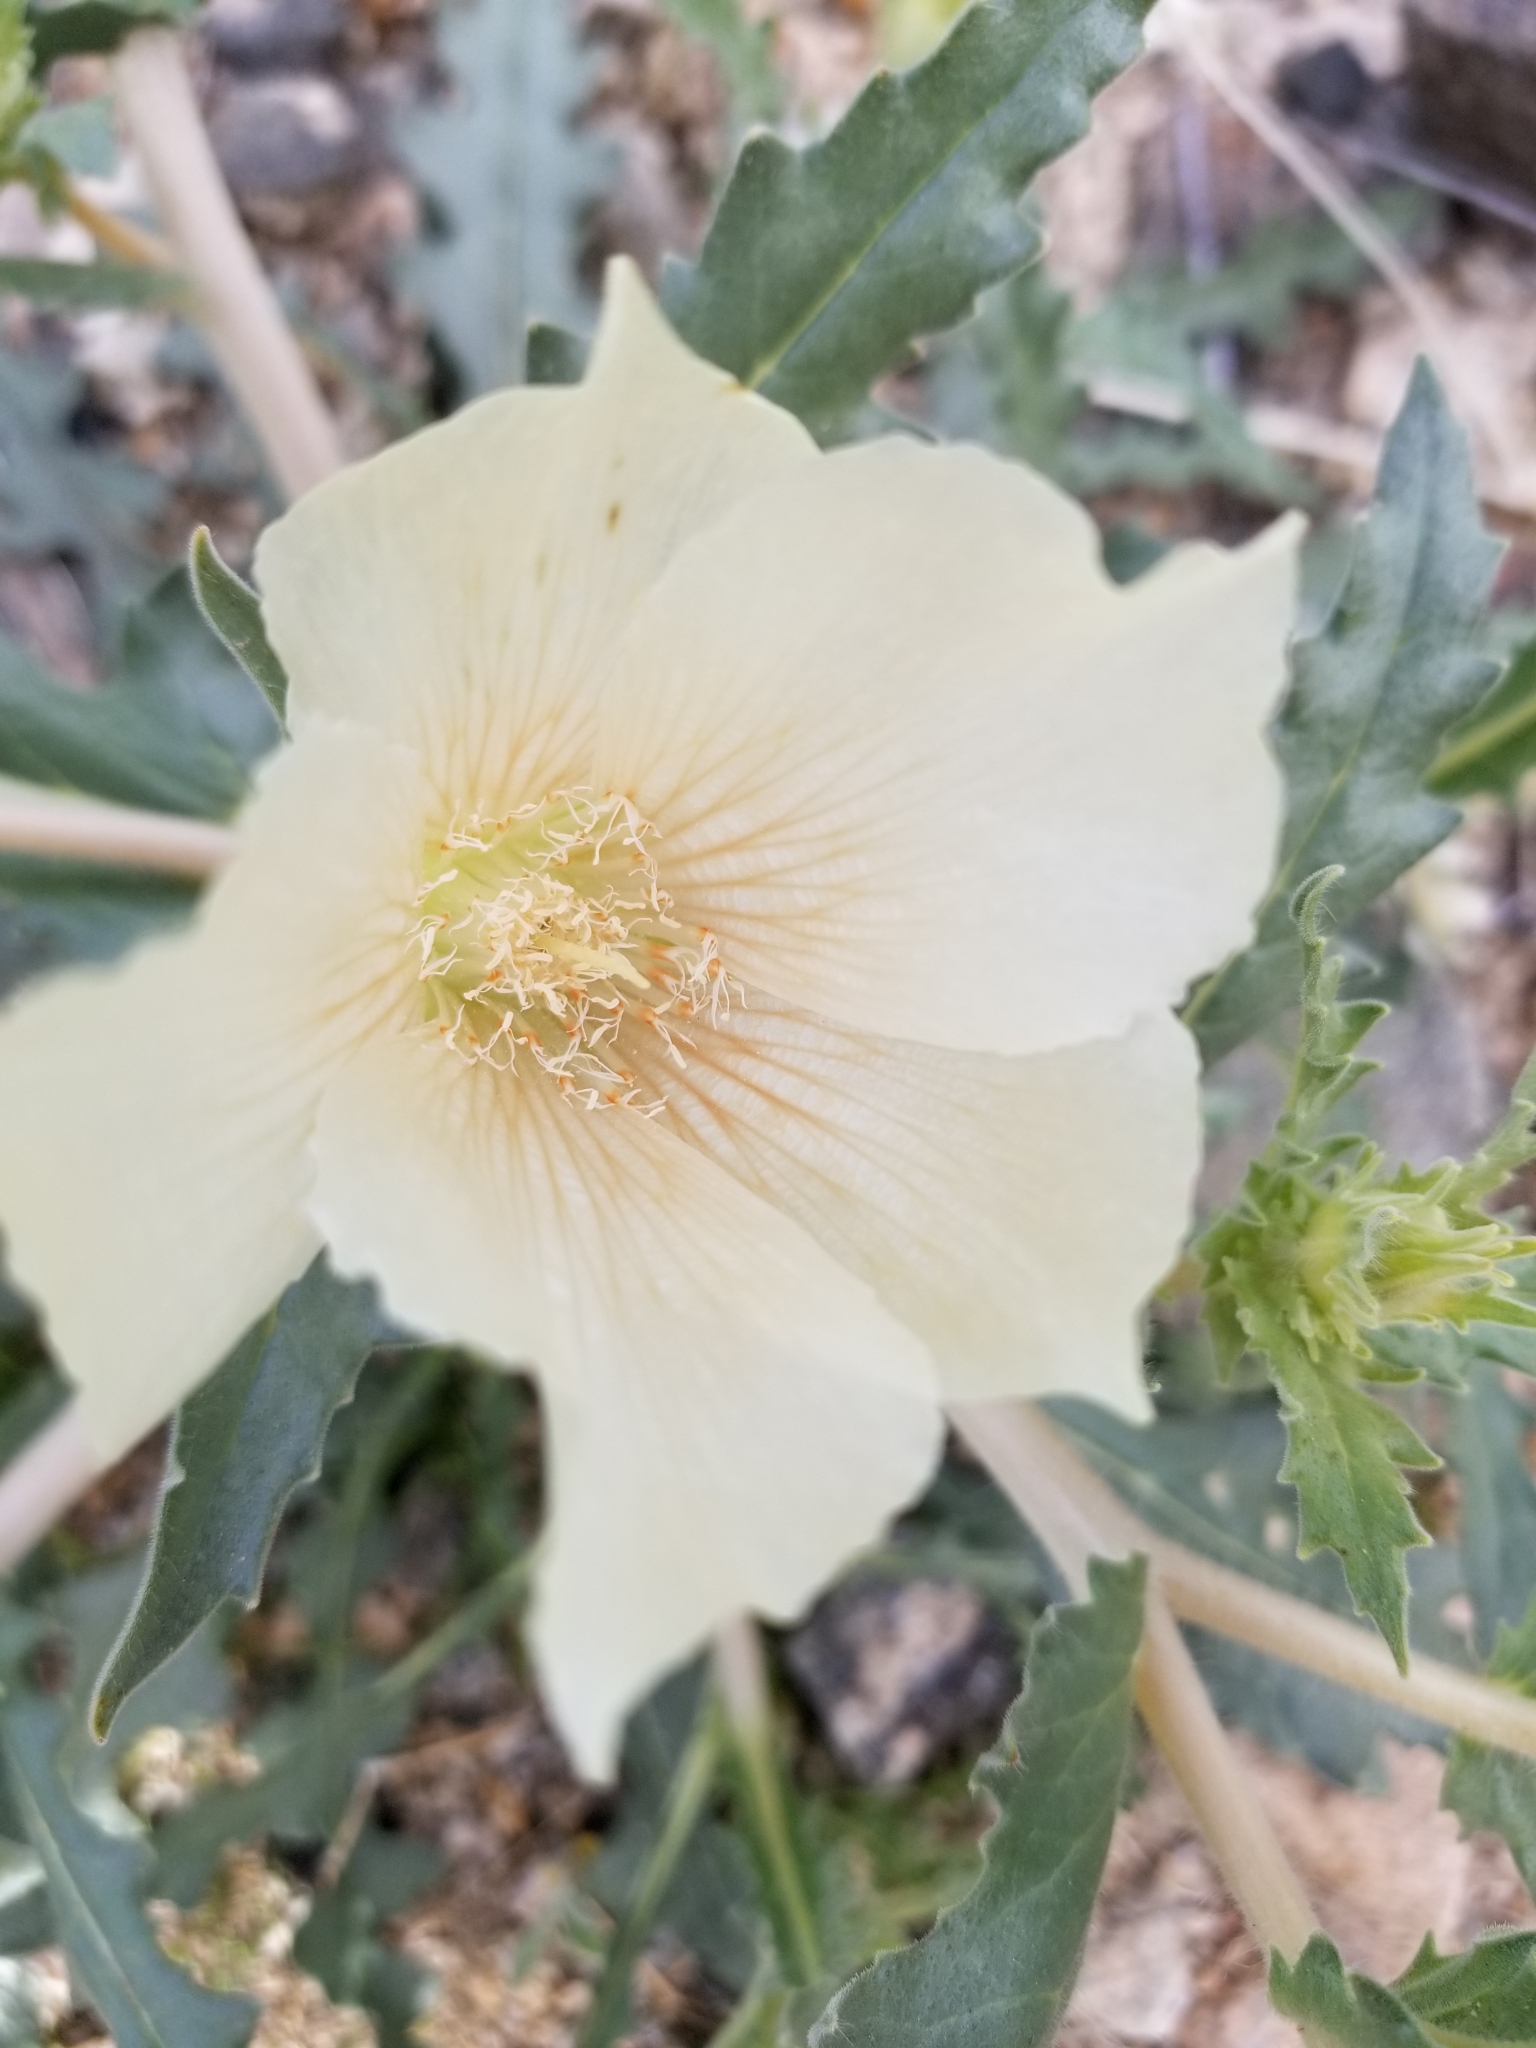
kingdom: Plantae
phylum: Tracheophyta
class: Magnoliopsida
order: Cornales
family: Loasaceae
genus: Mentzelia
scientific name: Mentzelia involucrata
